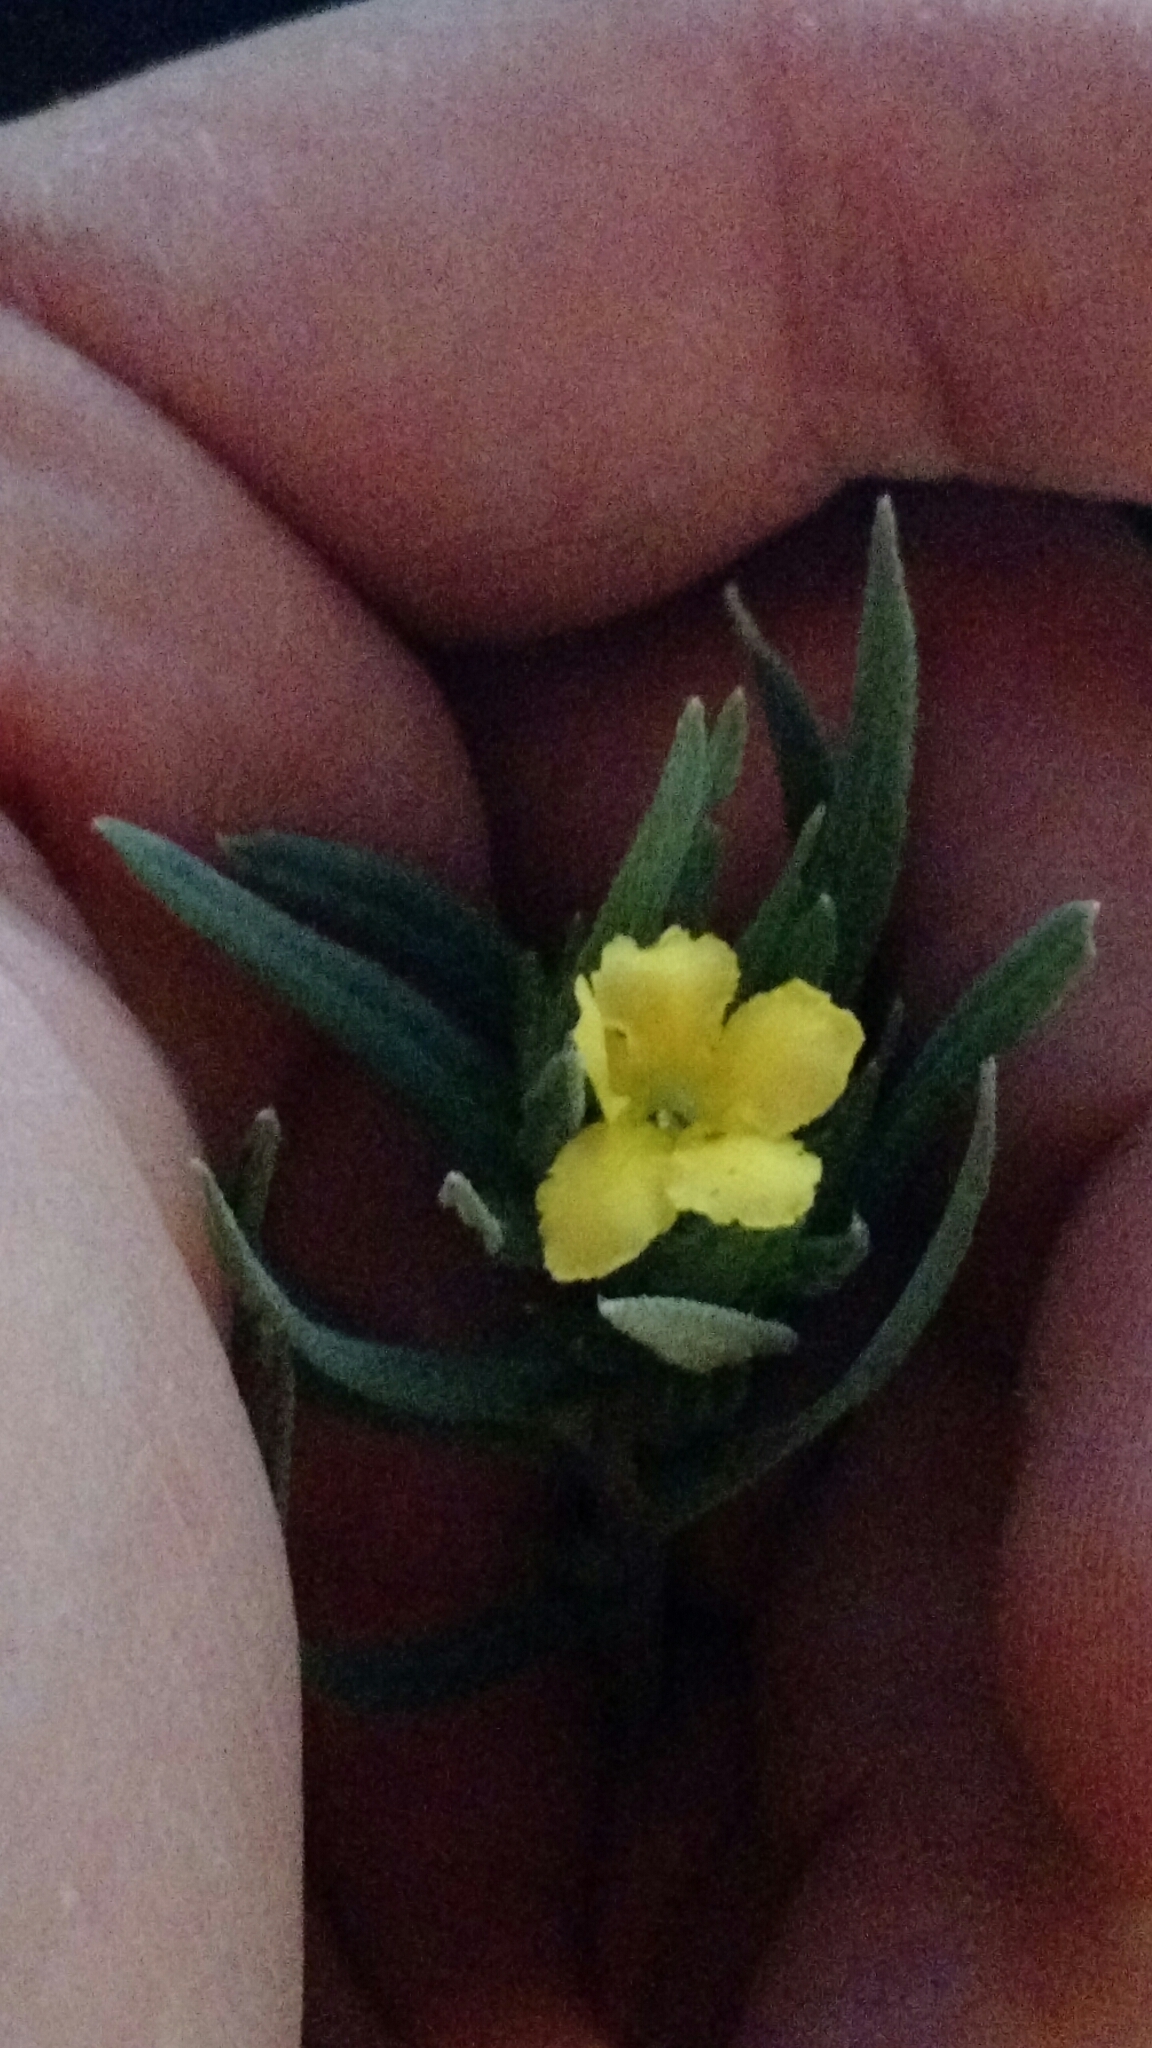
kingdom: Plantae
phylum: Tracheophyta
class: Magnoliopsida
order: Boraginales
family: Boraginaceae
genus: Lithospermum
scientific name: Lithospermum incisum
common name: Fringed gromwell
